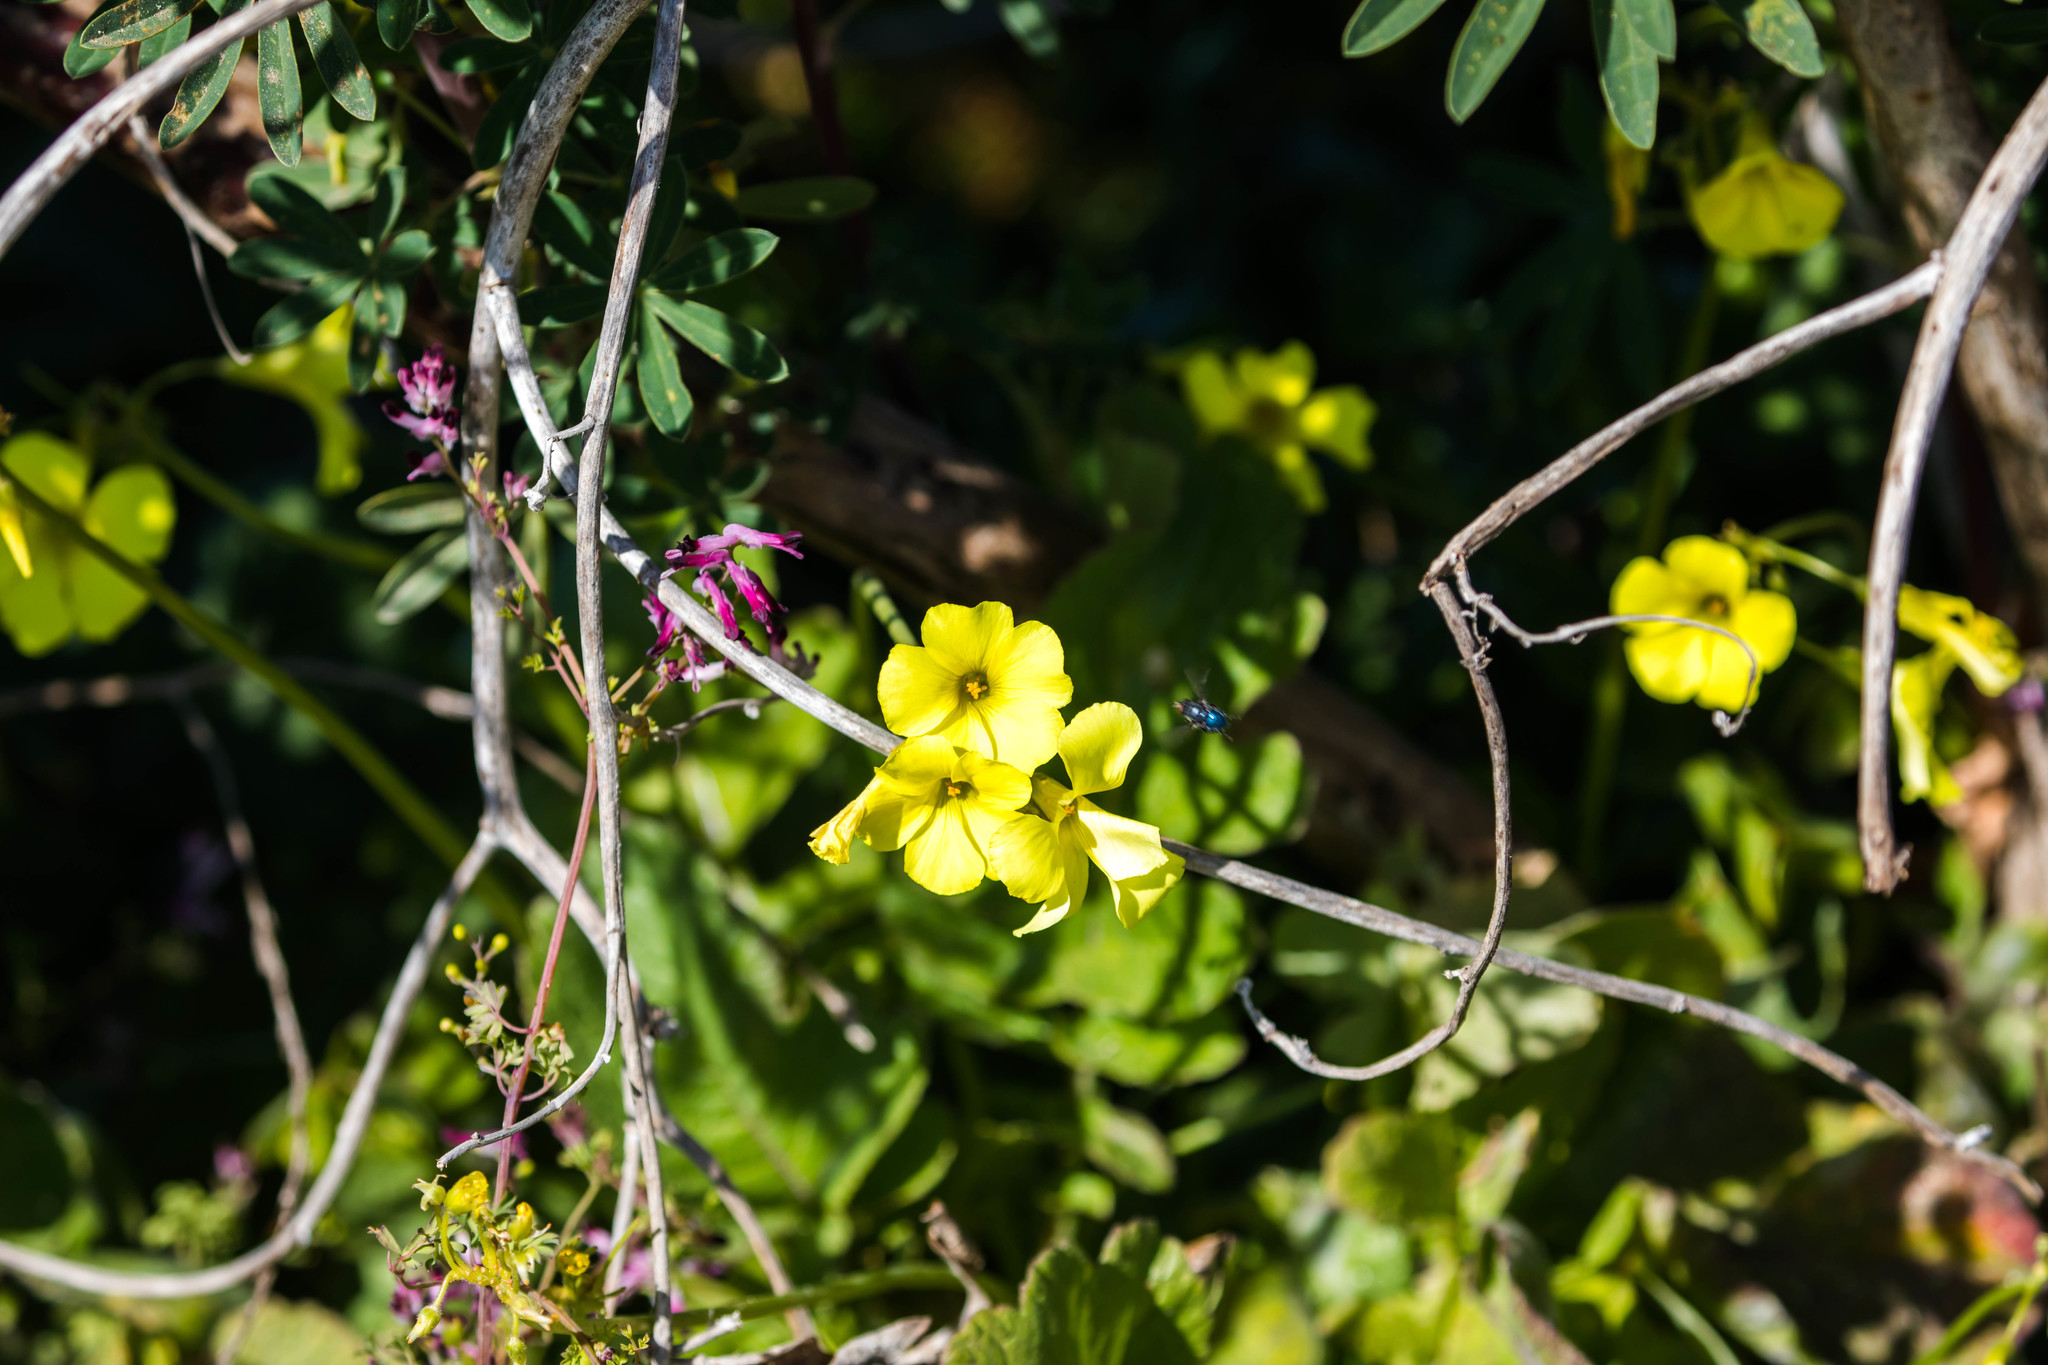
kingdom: Plantae
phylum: Tracheophyta
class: Magnoliopsida
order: Oxalidales
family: Oxalidaceae
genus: Oxalis
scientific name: Oxalis pes-caprae
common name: Bermuda-buttercup
